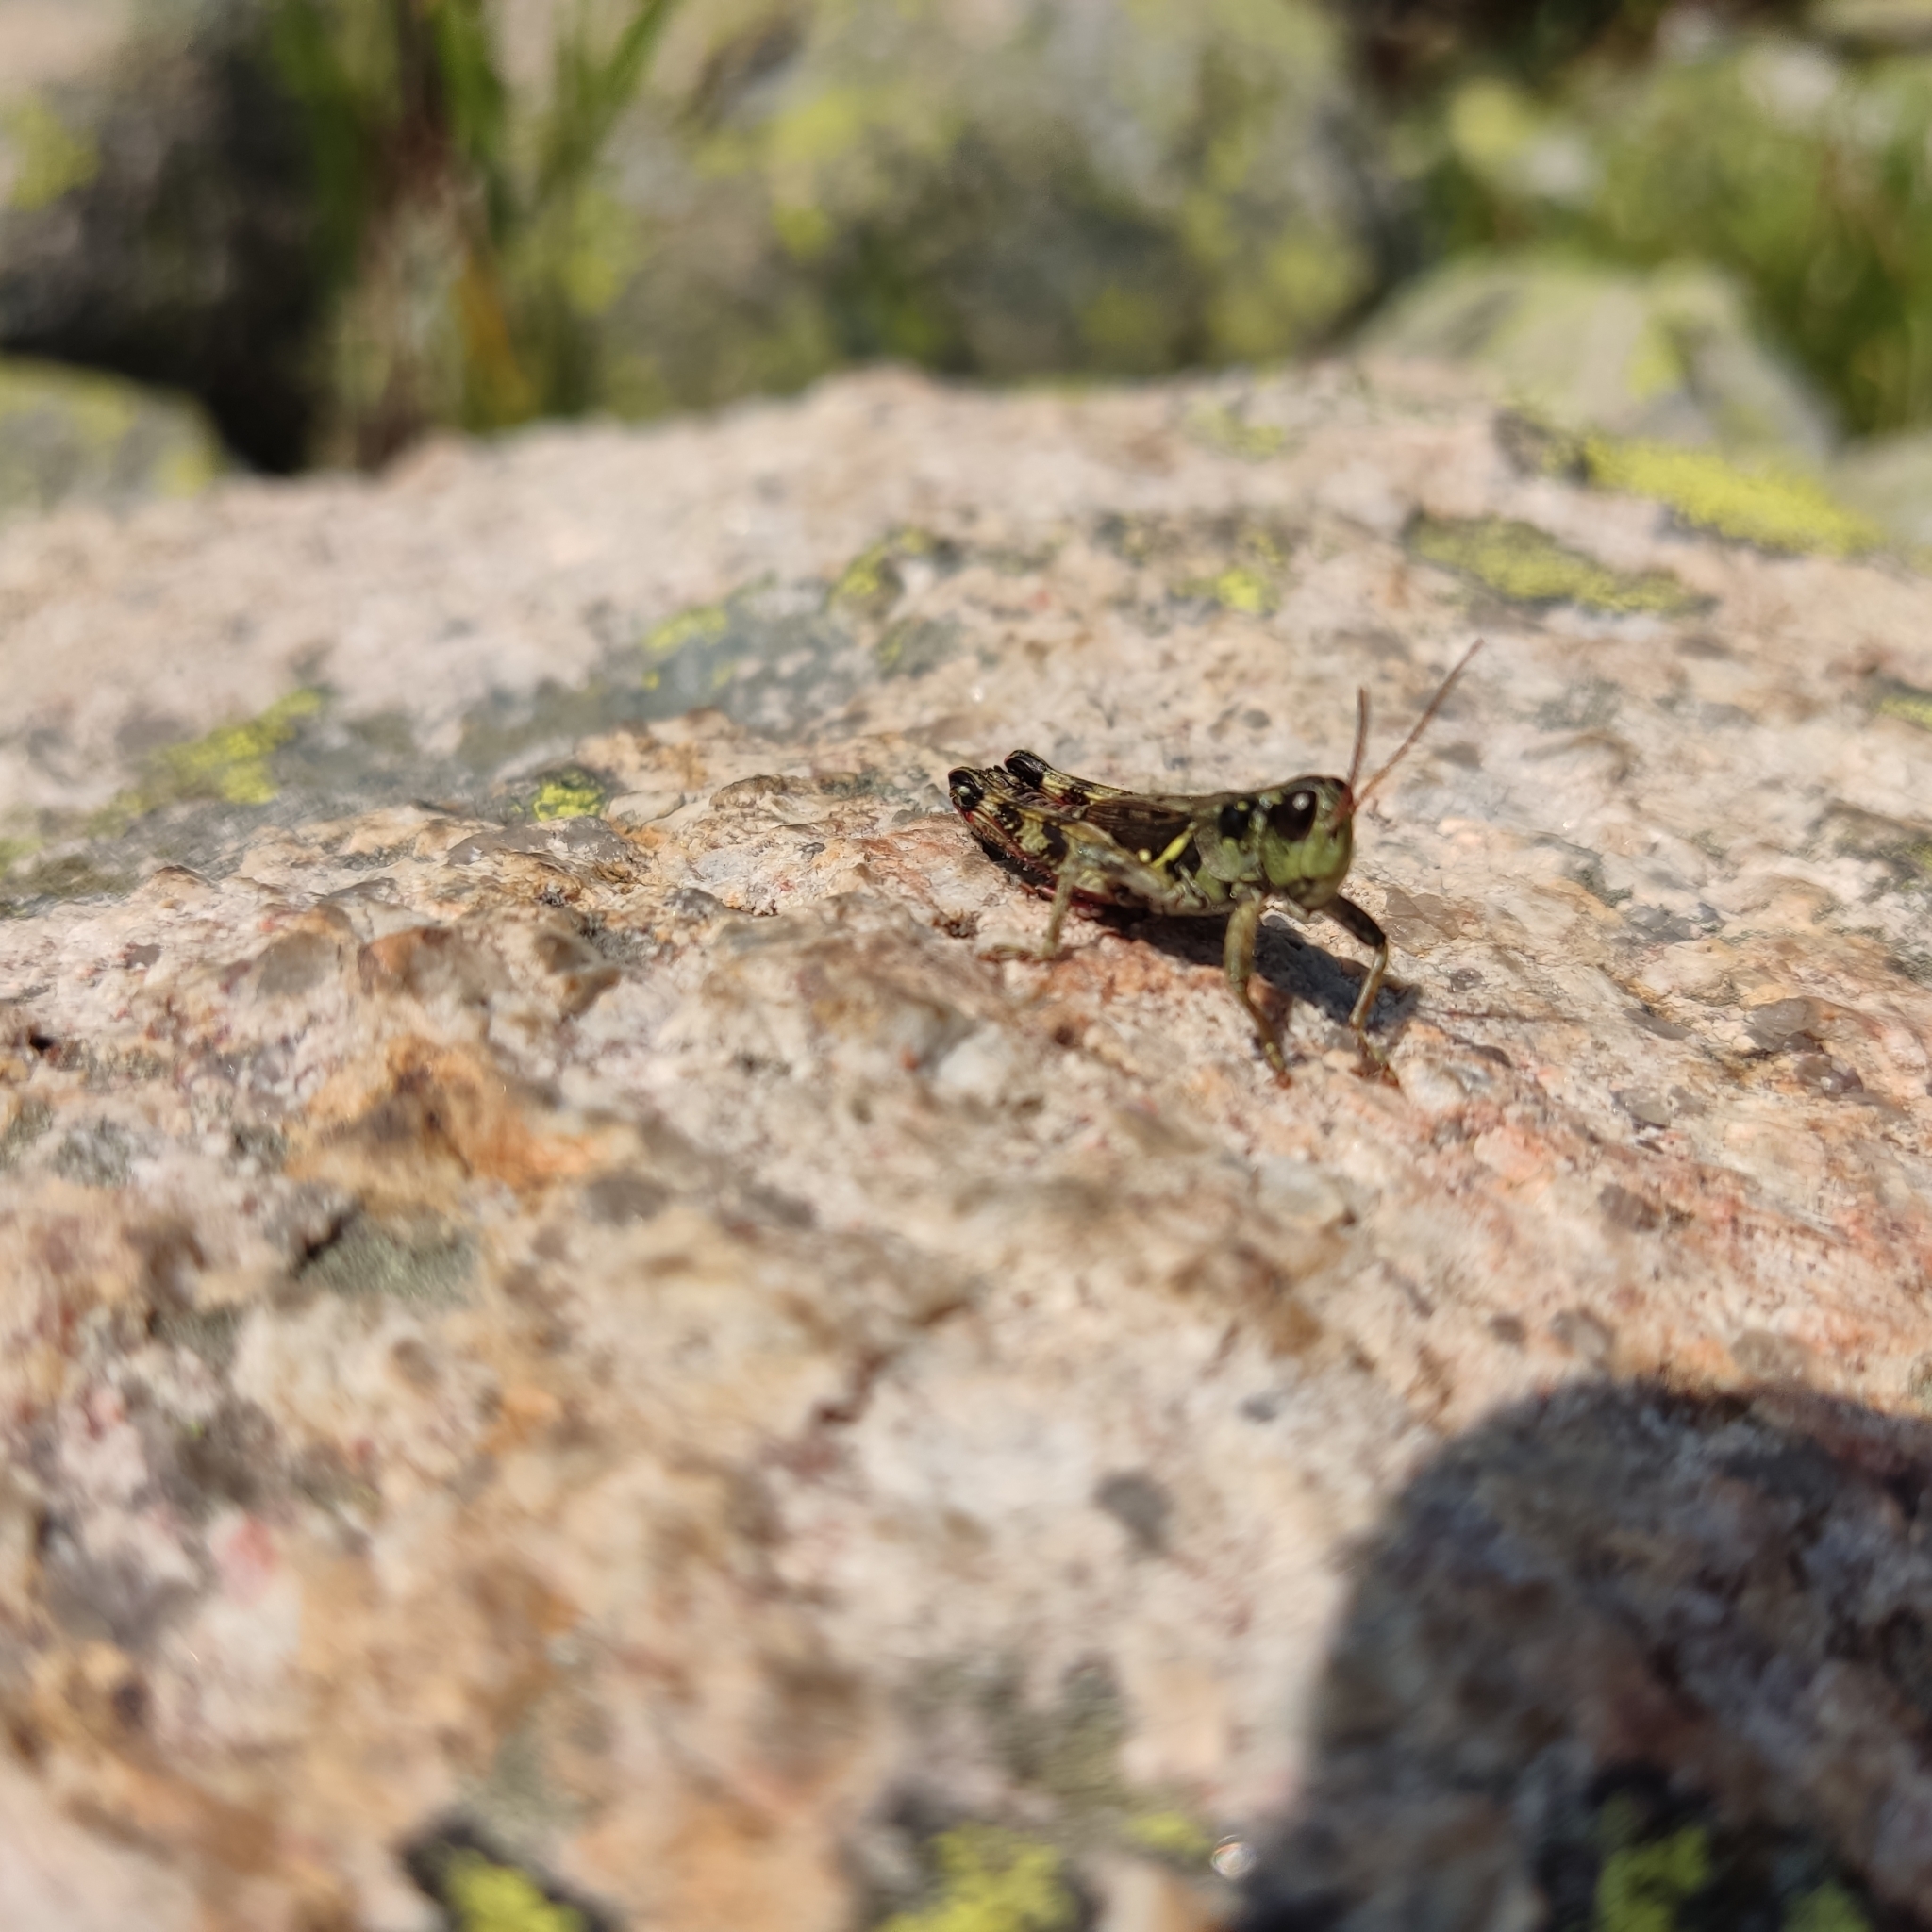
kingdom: Animalia
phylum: Arthropoda
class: Insecta
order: Orthoptera
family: Acrididae
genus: Bohemanella
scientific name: Bohemanella frigida
